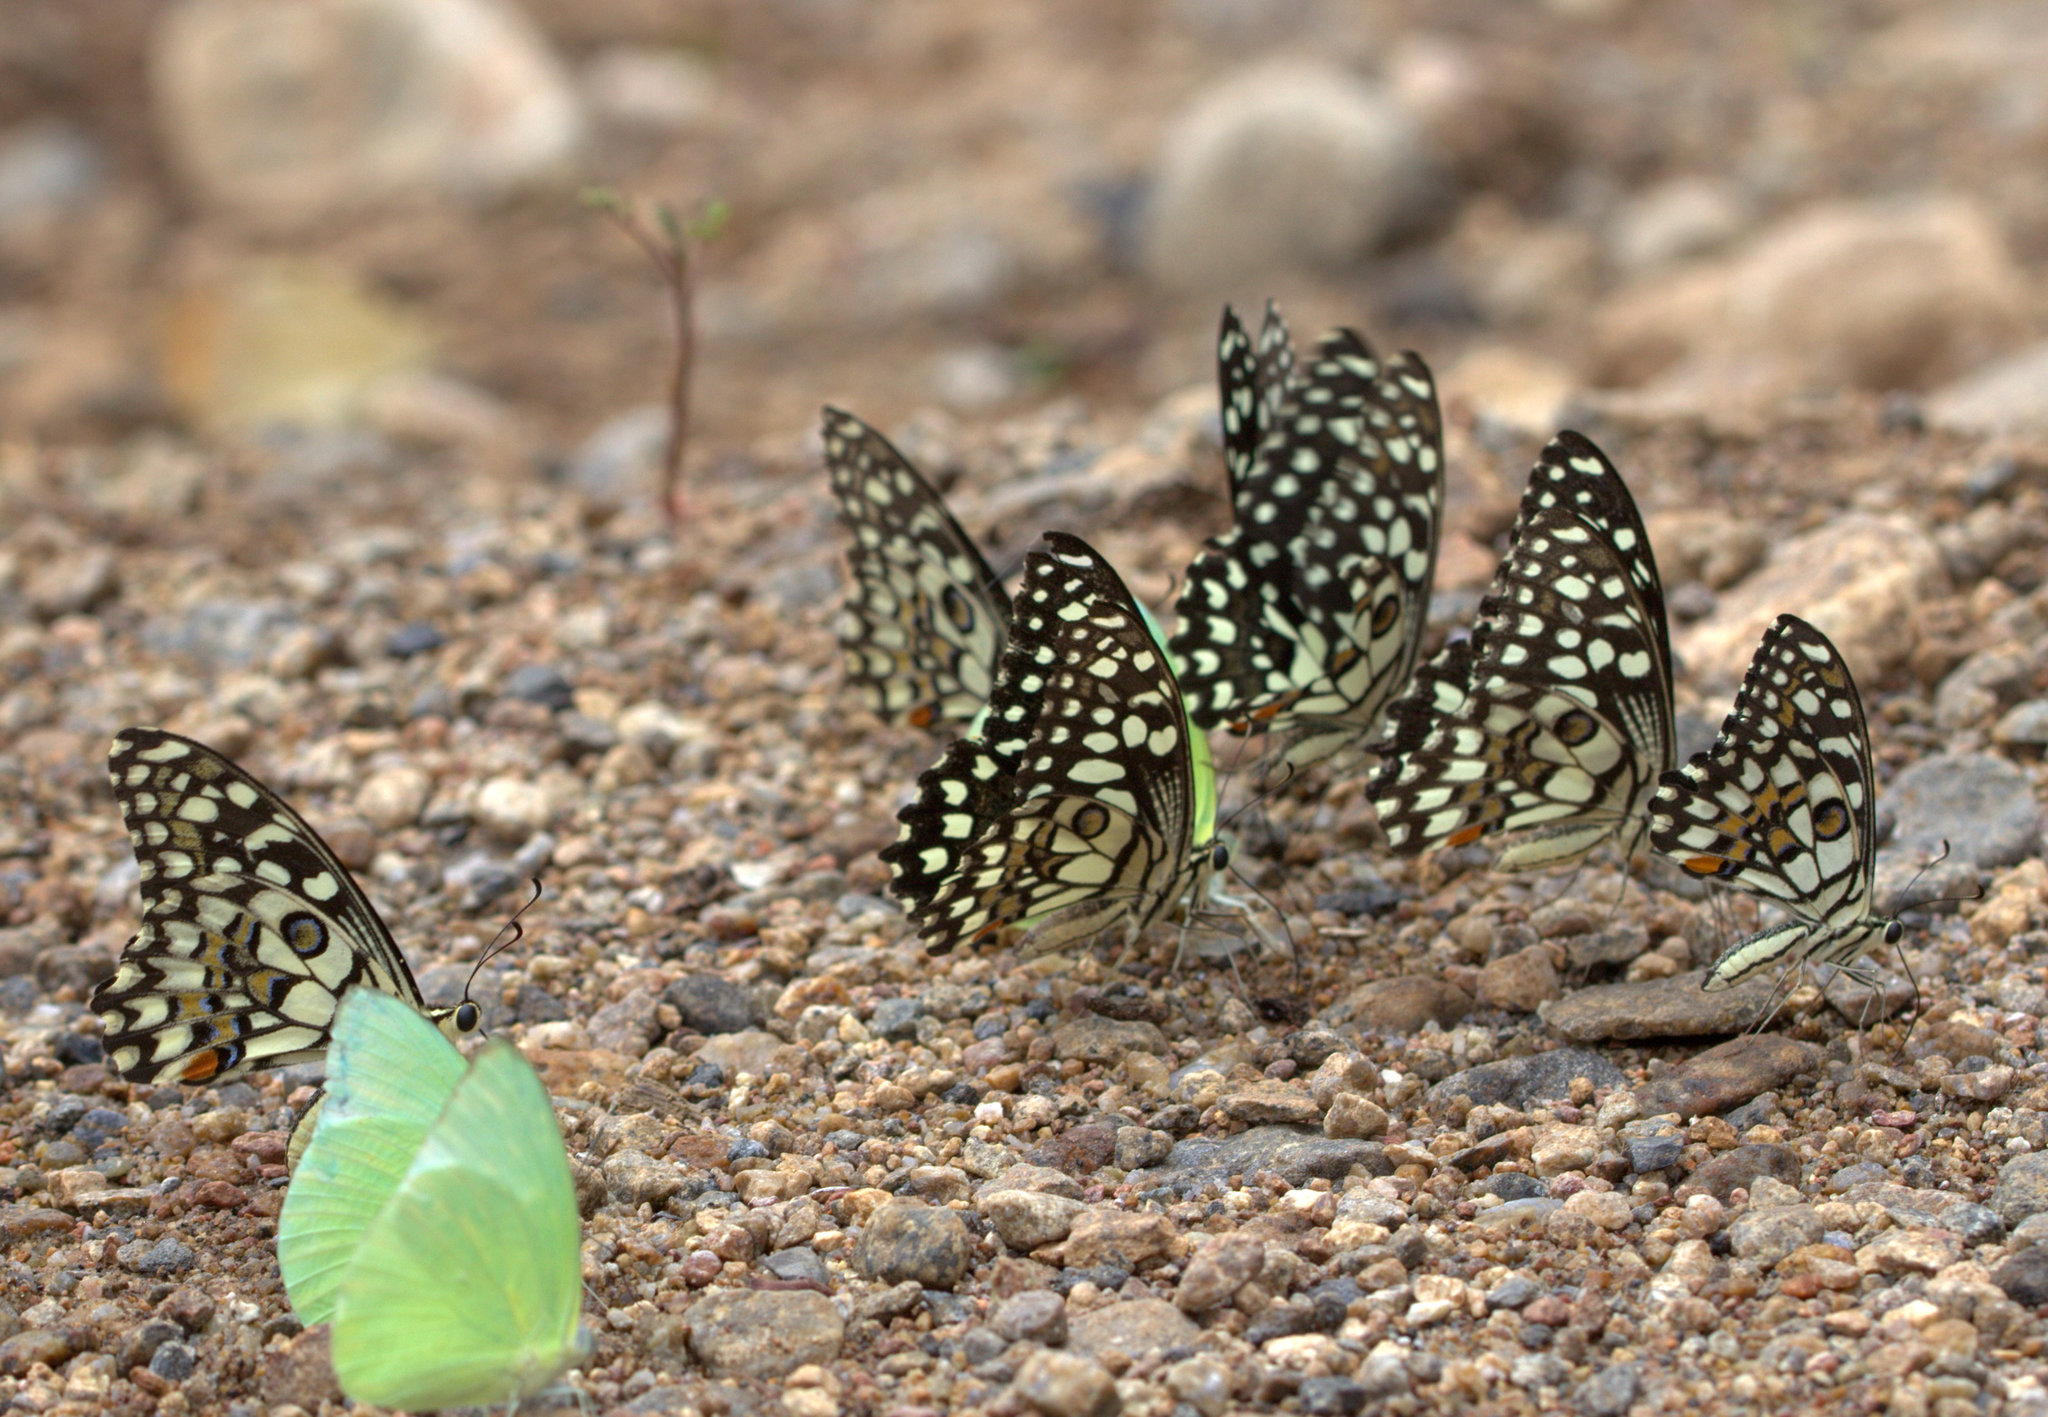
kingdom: Animalia
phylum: Arthropoda
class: Insecta
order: Lepidoptera
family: Papilionidae
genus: Papilio
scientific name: Papilio demoleus
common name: Lime butterfly
